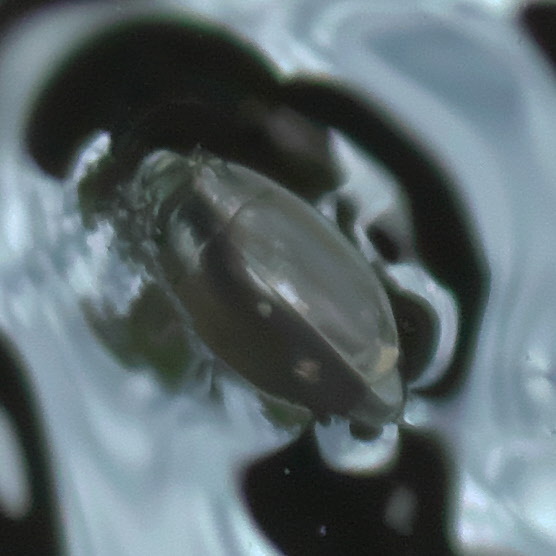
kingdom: Animalia
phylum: Arthropoda
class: Insecta
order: Coleoptera
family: Gyrinidae
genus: Dineutus
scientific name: Dineutus
